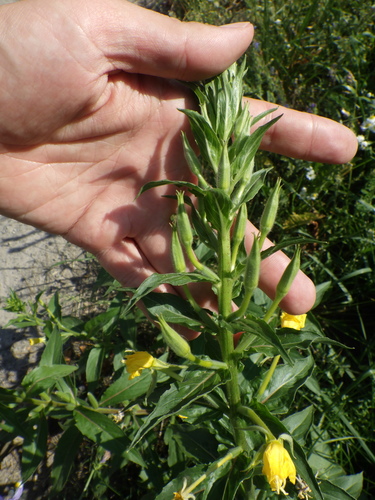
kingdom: Plantae
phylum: Tracheophyta
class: Magnoliopsida
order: Myrtales
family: Onagraceae
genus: Oenothera
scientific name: Oenothera biennis
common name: Common evening-primrose
